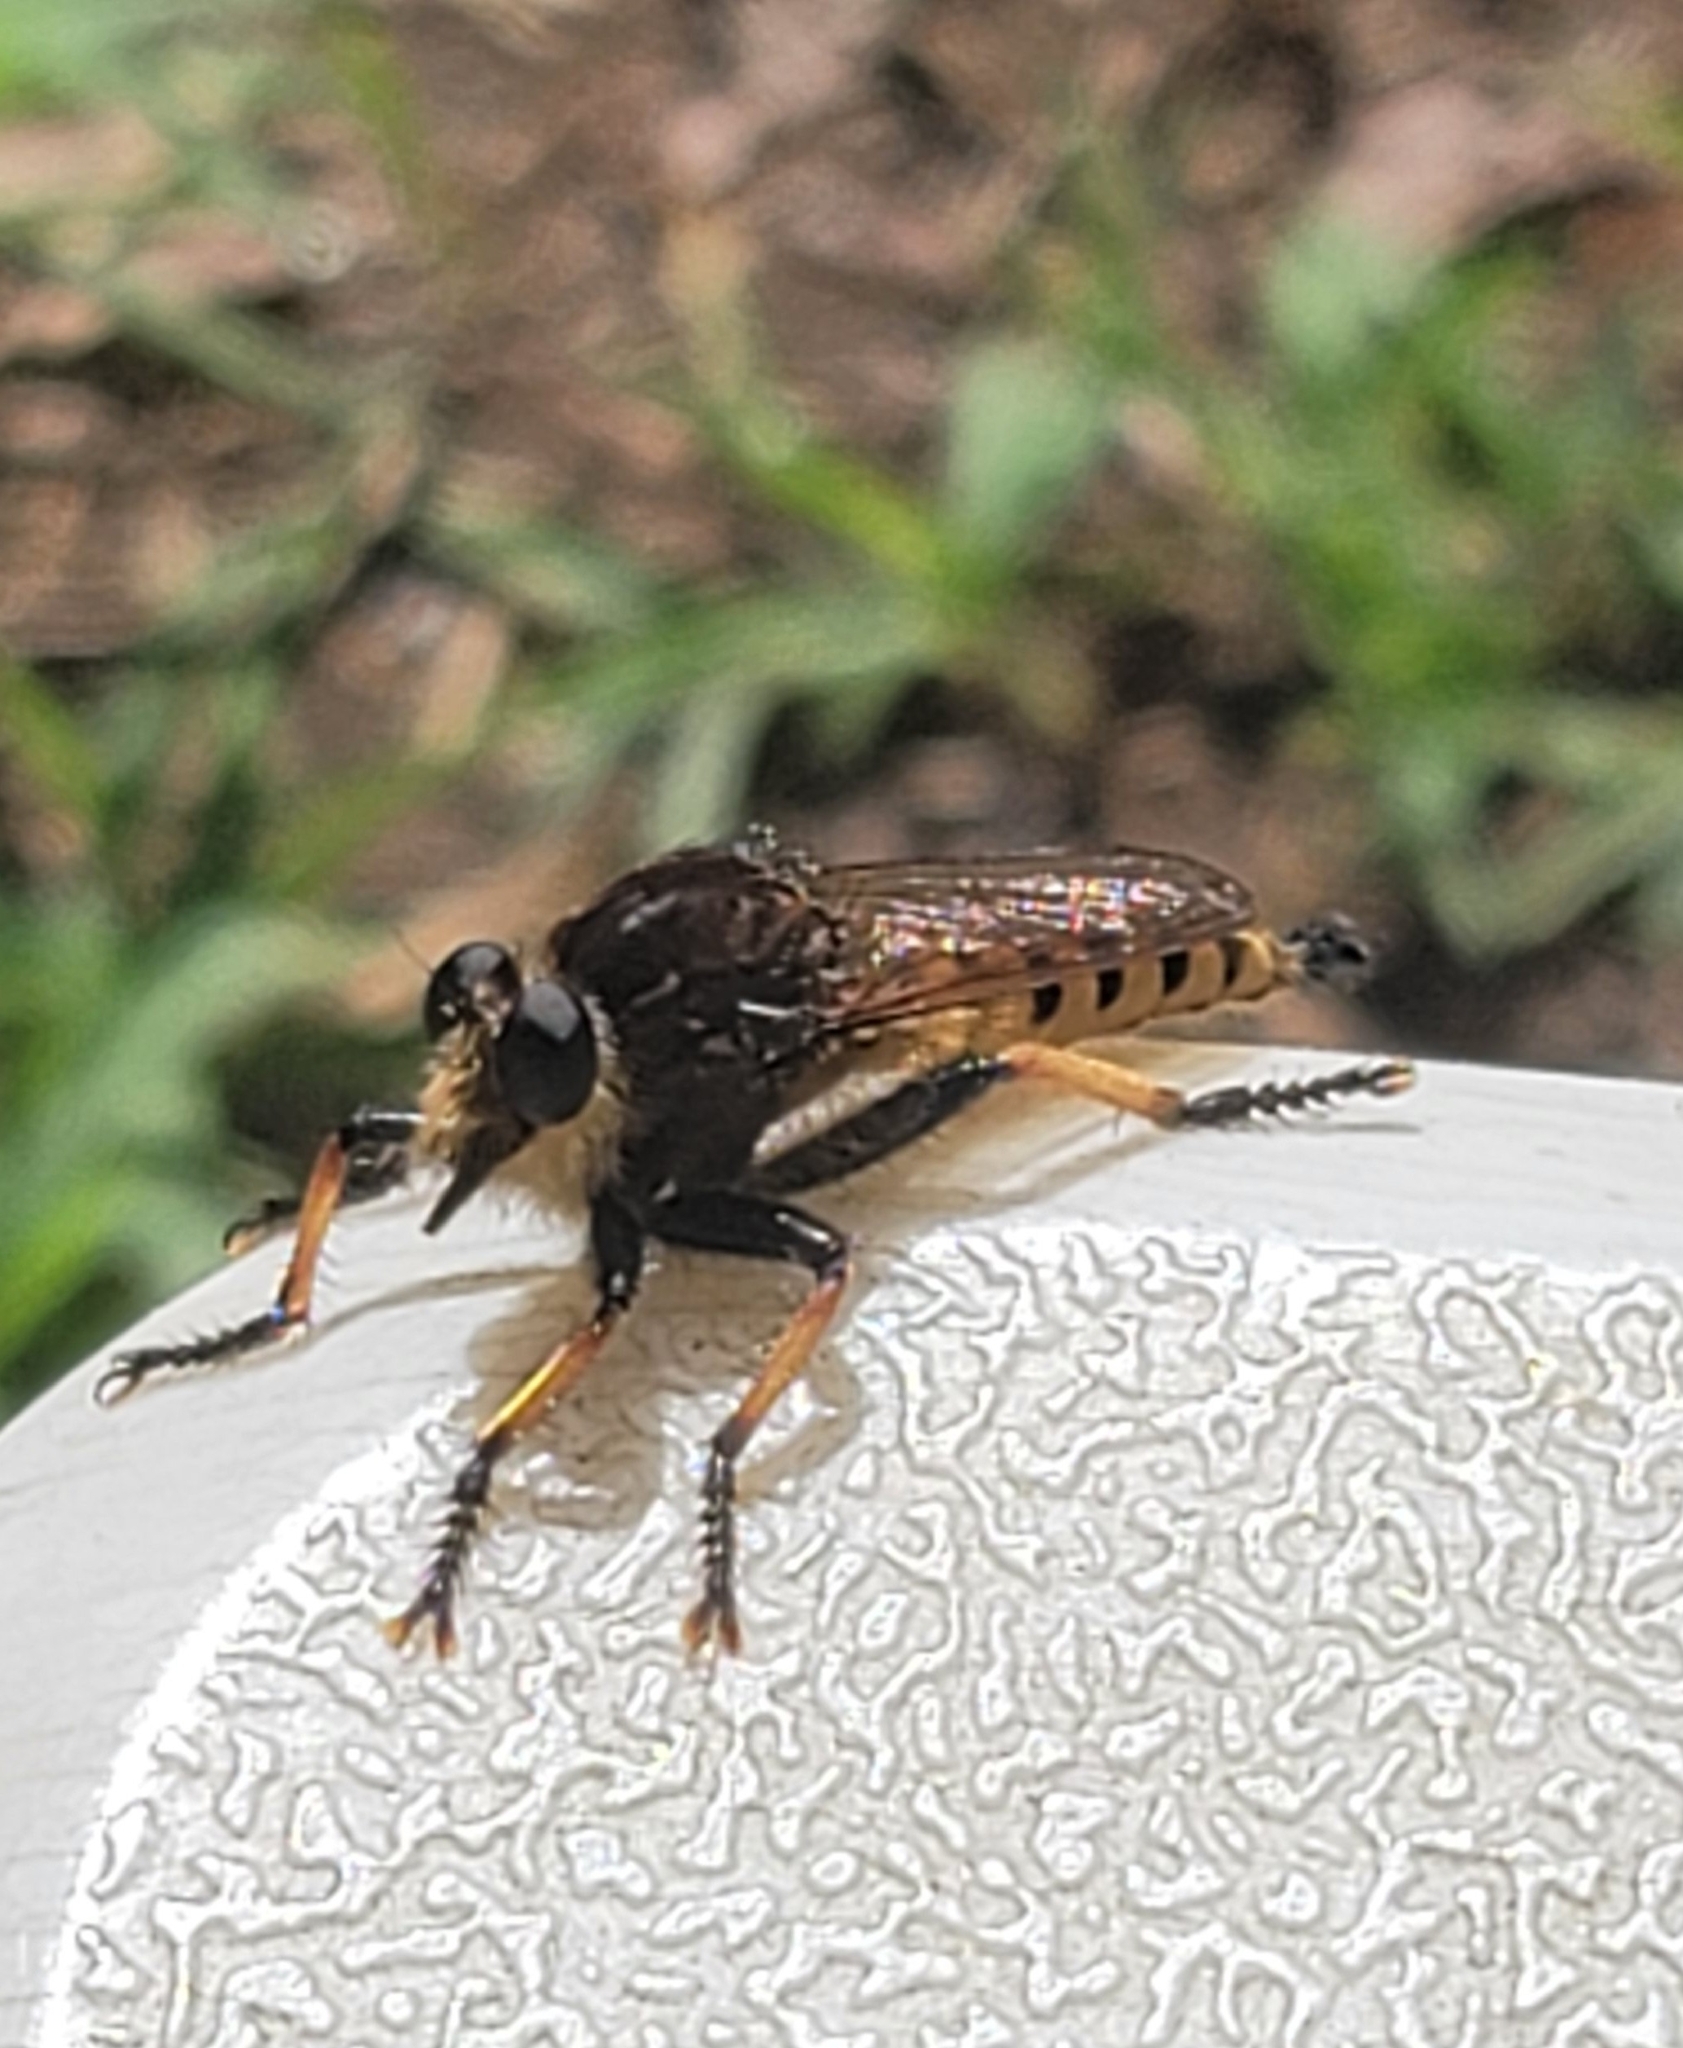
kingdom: Animalia
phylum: Arthropoda
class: Insecta
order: Diptera
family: Asilidae
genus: Promachus
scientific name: Promachus rufipes
